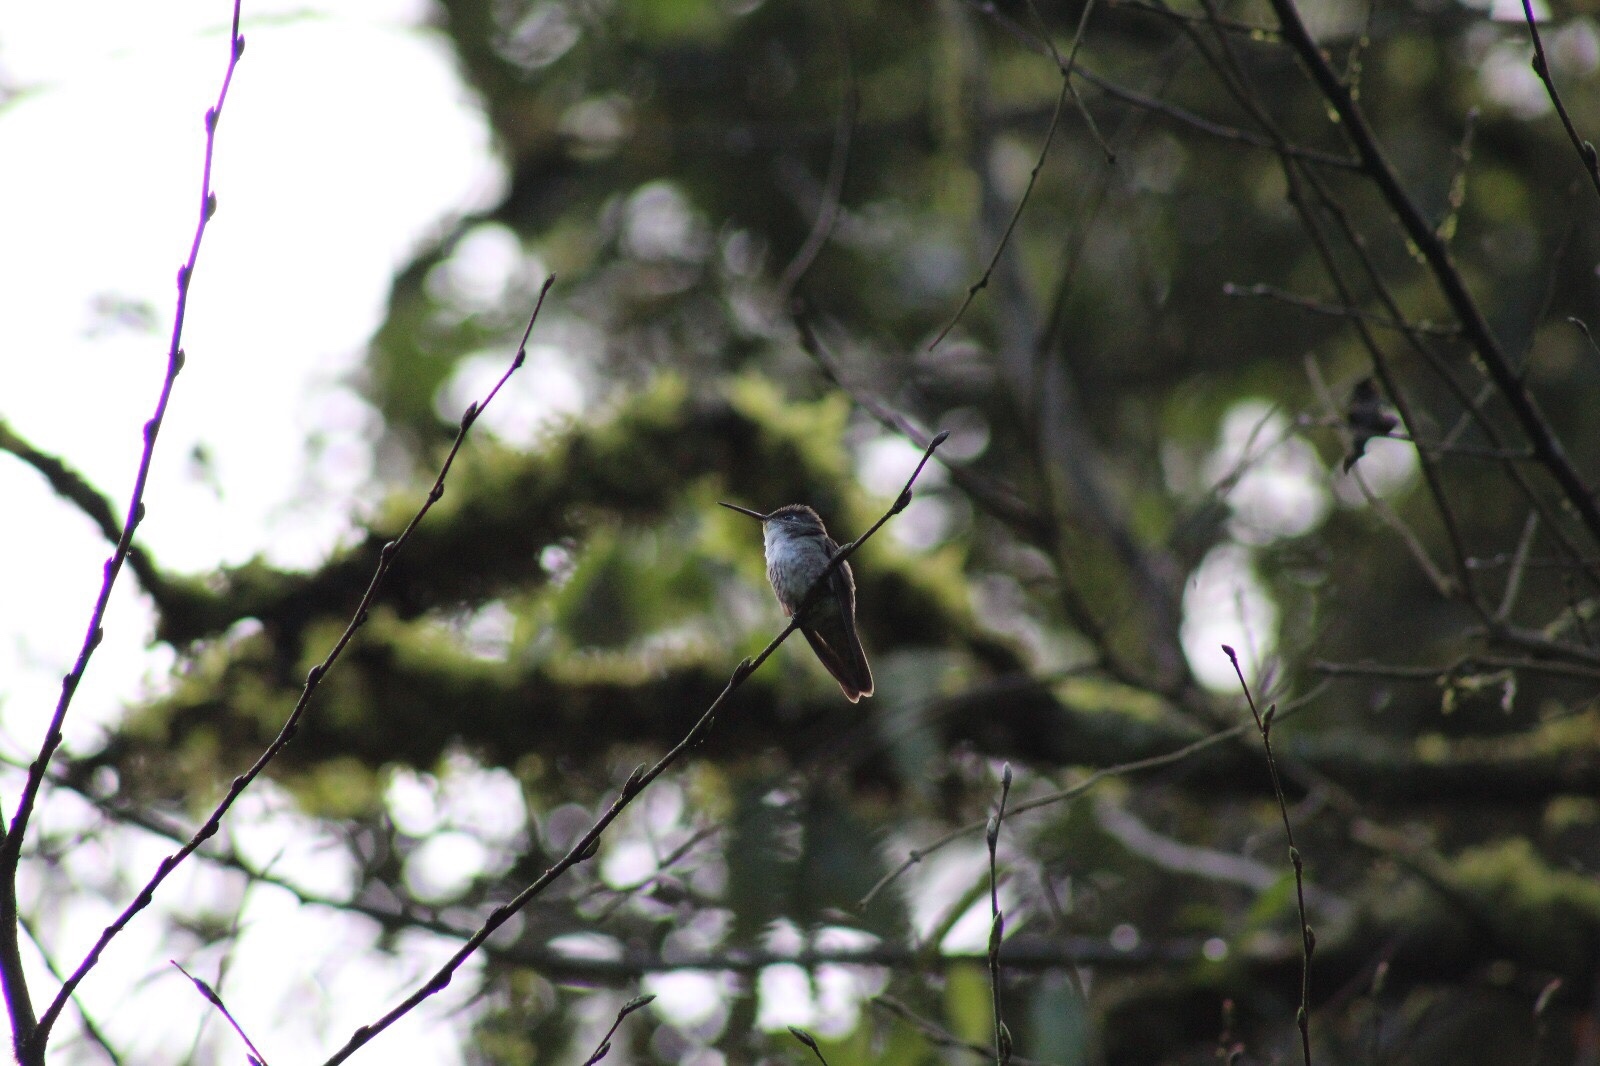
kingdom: Animalia
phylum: Chordata
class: Aves
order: Apodiformes
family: Trochilidae
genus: Saucerottia
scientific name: Saucerottia cyanocephala
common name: Azure-crowned hummingbird
